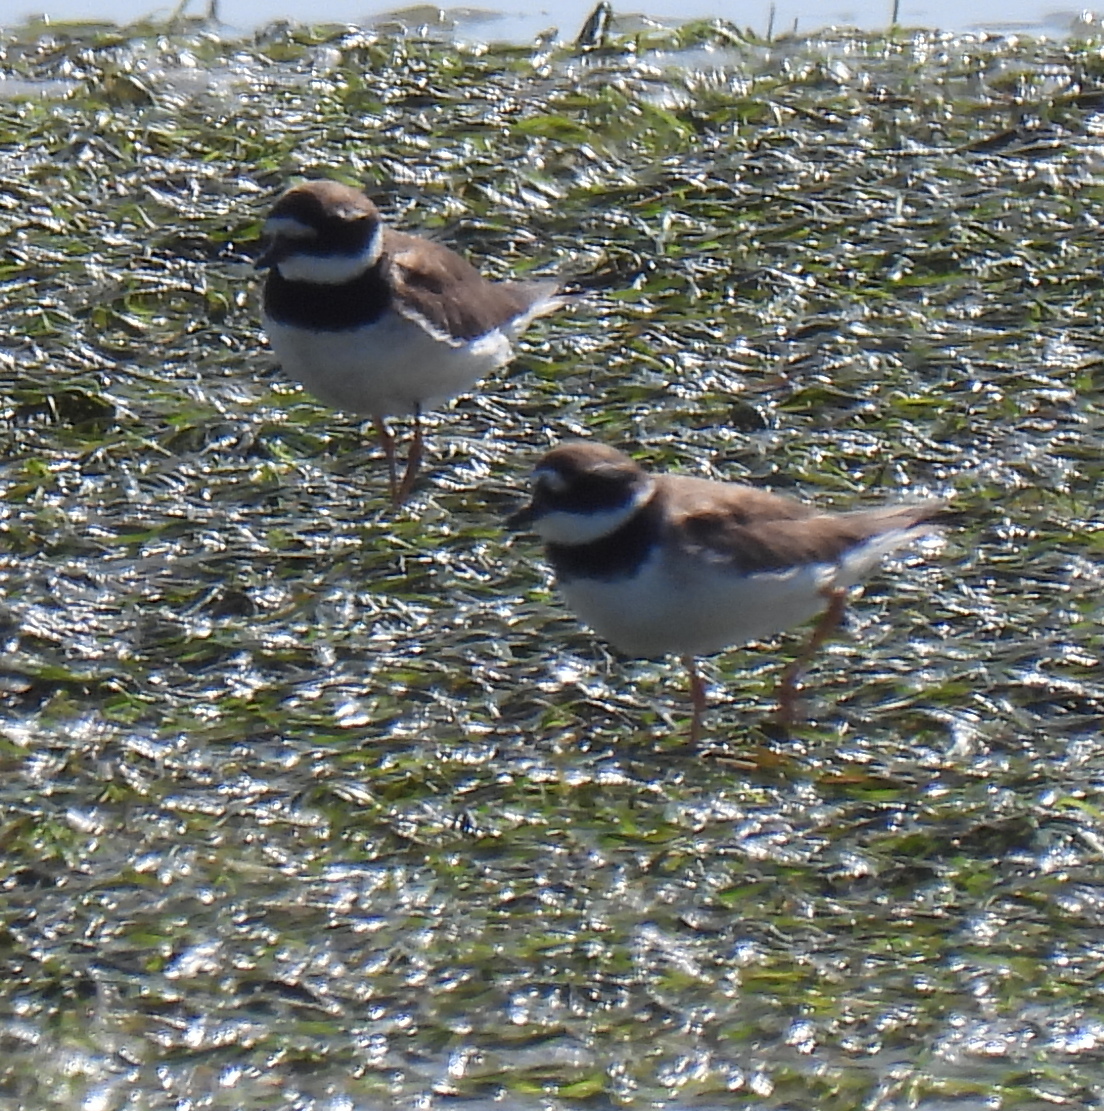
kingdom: Animalia
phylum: Chordata
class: Aves
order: Charadriiformes
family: Charadriidae
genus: Charadrius
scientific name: Charadrius hiaticula
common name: Common ringed plover
